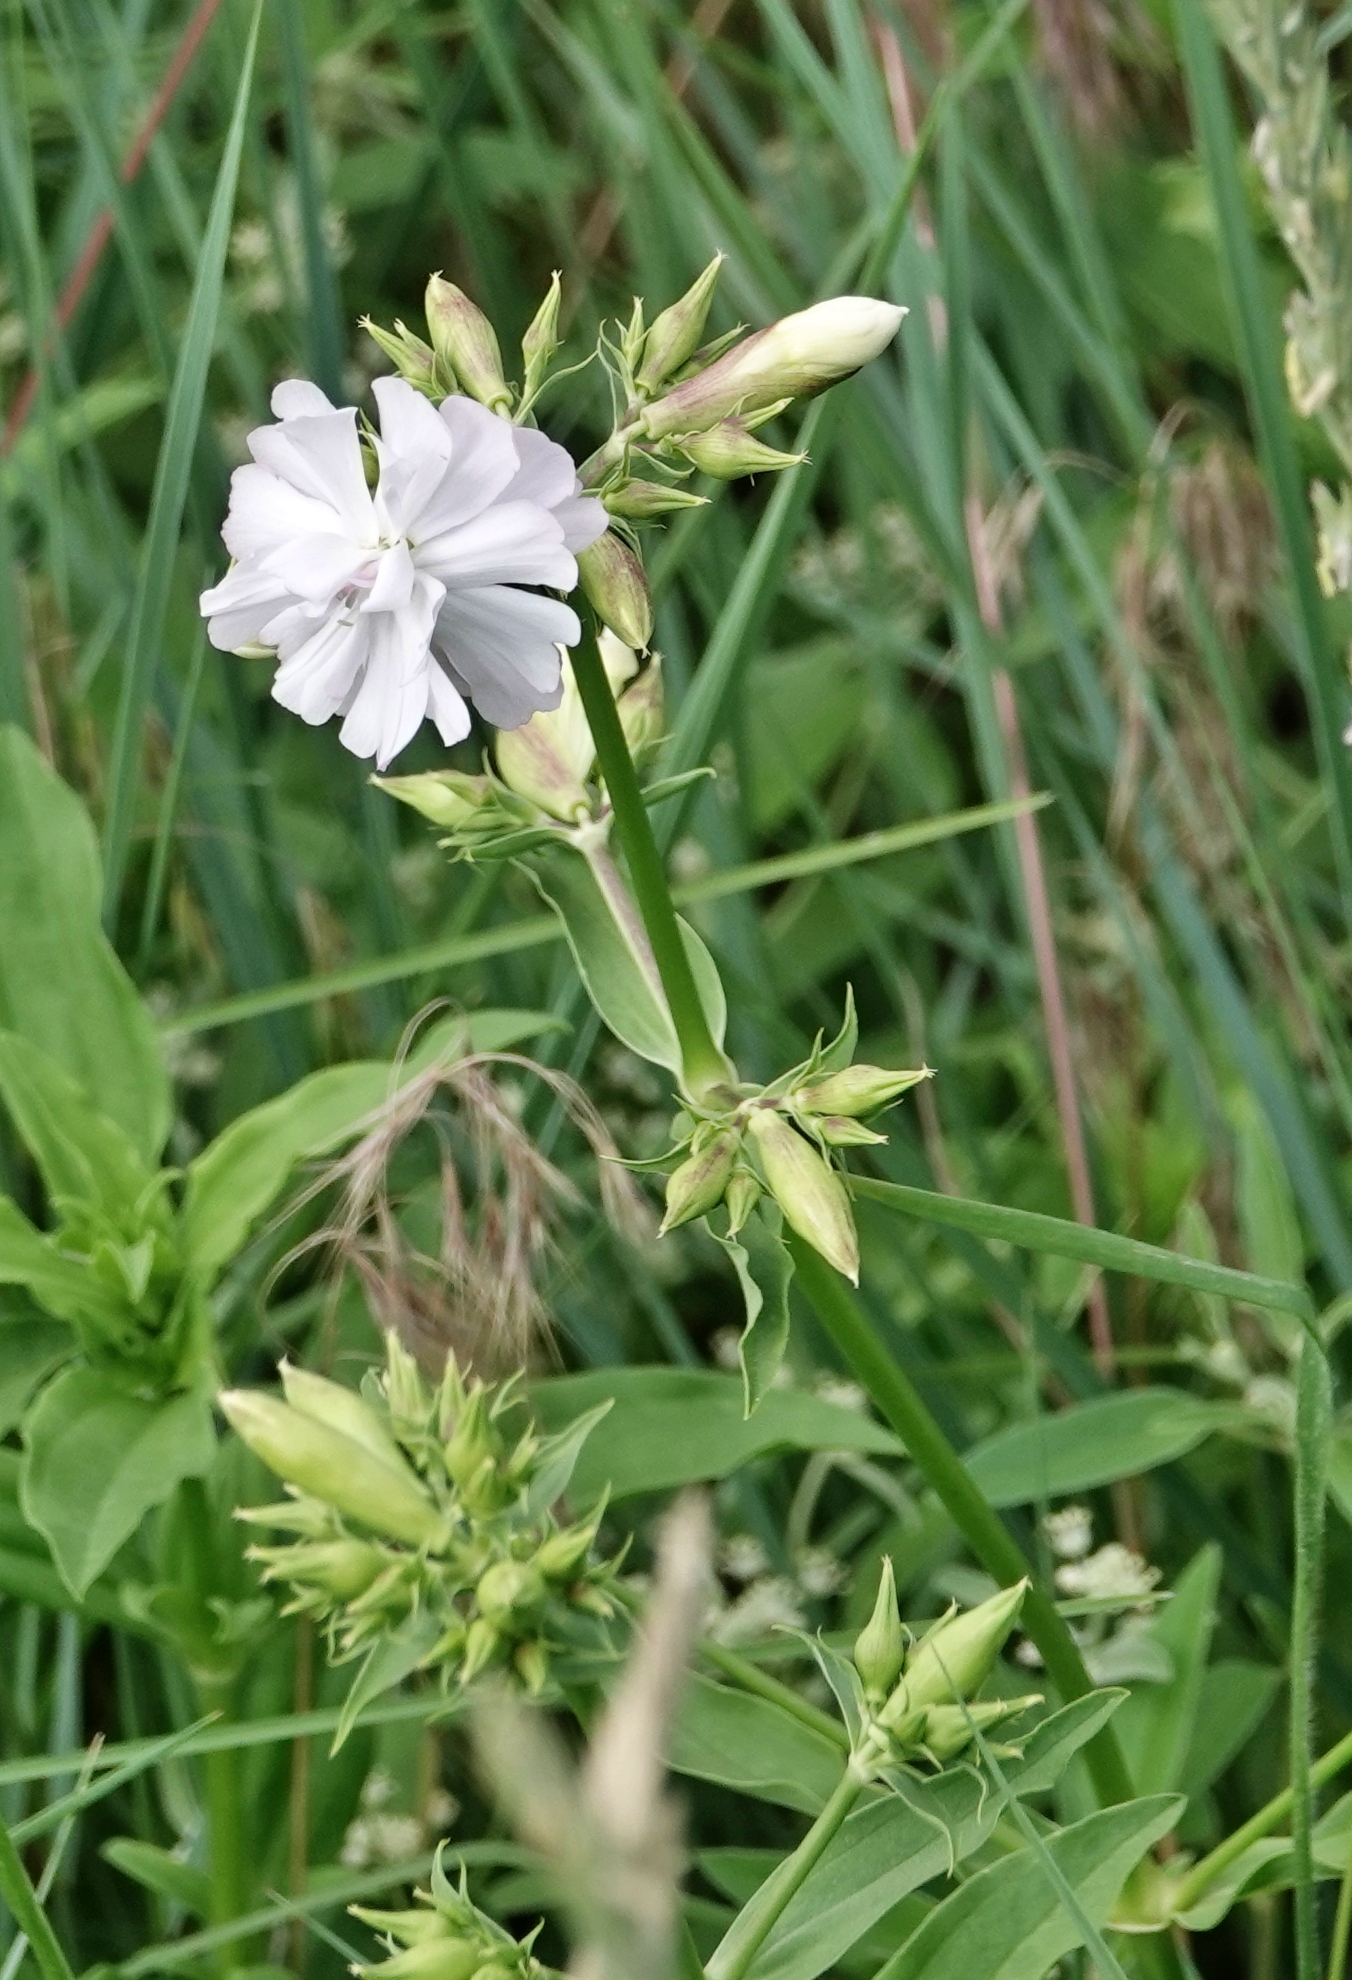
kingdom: Plantae
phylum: Tracheophyta
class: Magnoliopsida
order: Caryophyllales
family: Caryophyllaceae
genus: Saponaria
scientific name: Saponaria officinalis
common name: Soapwort
